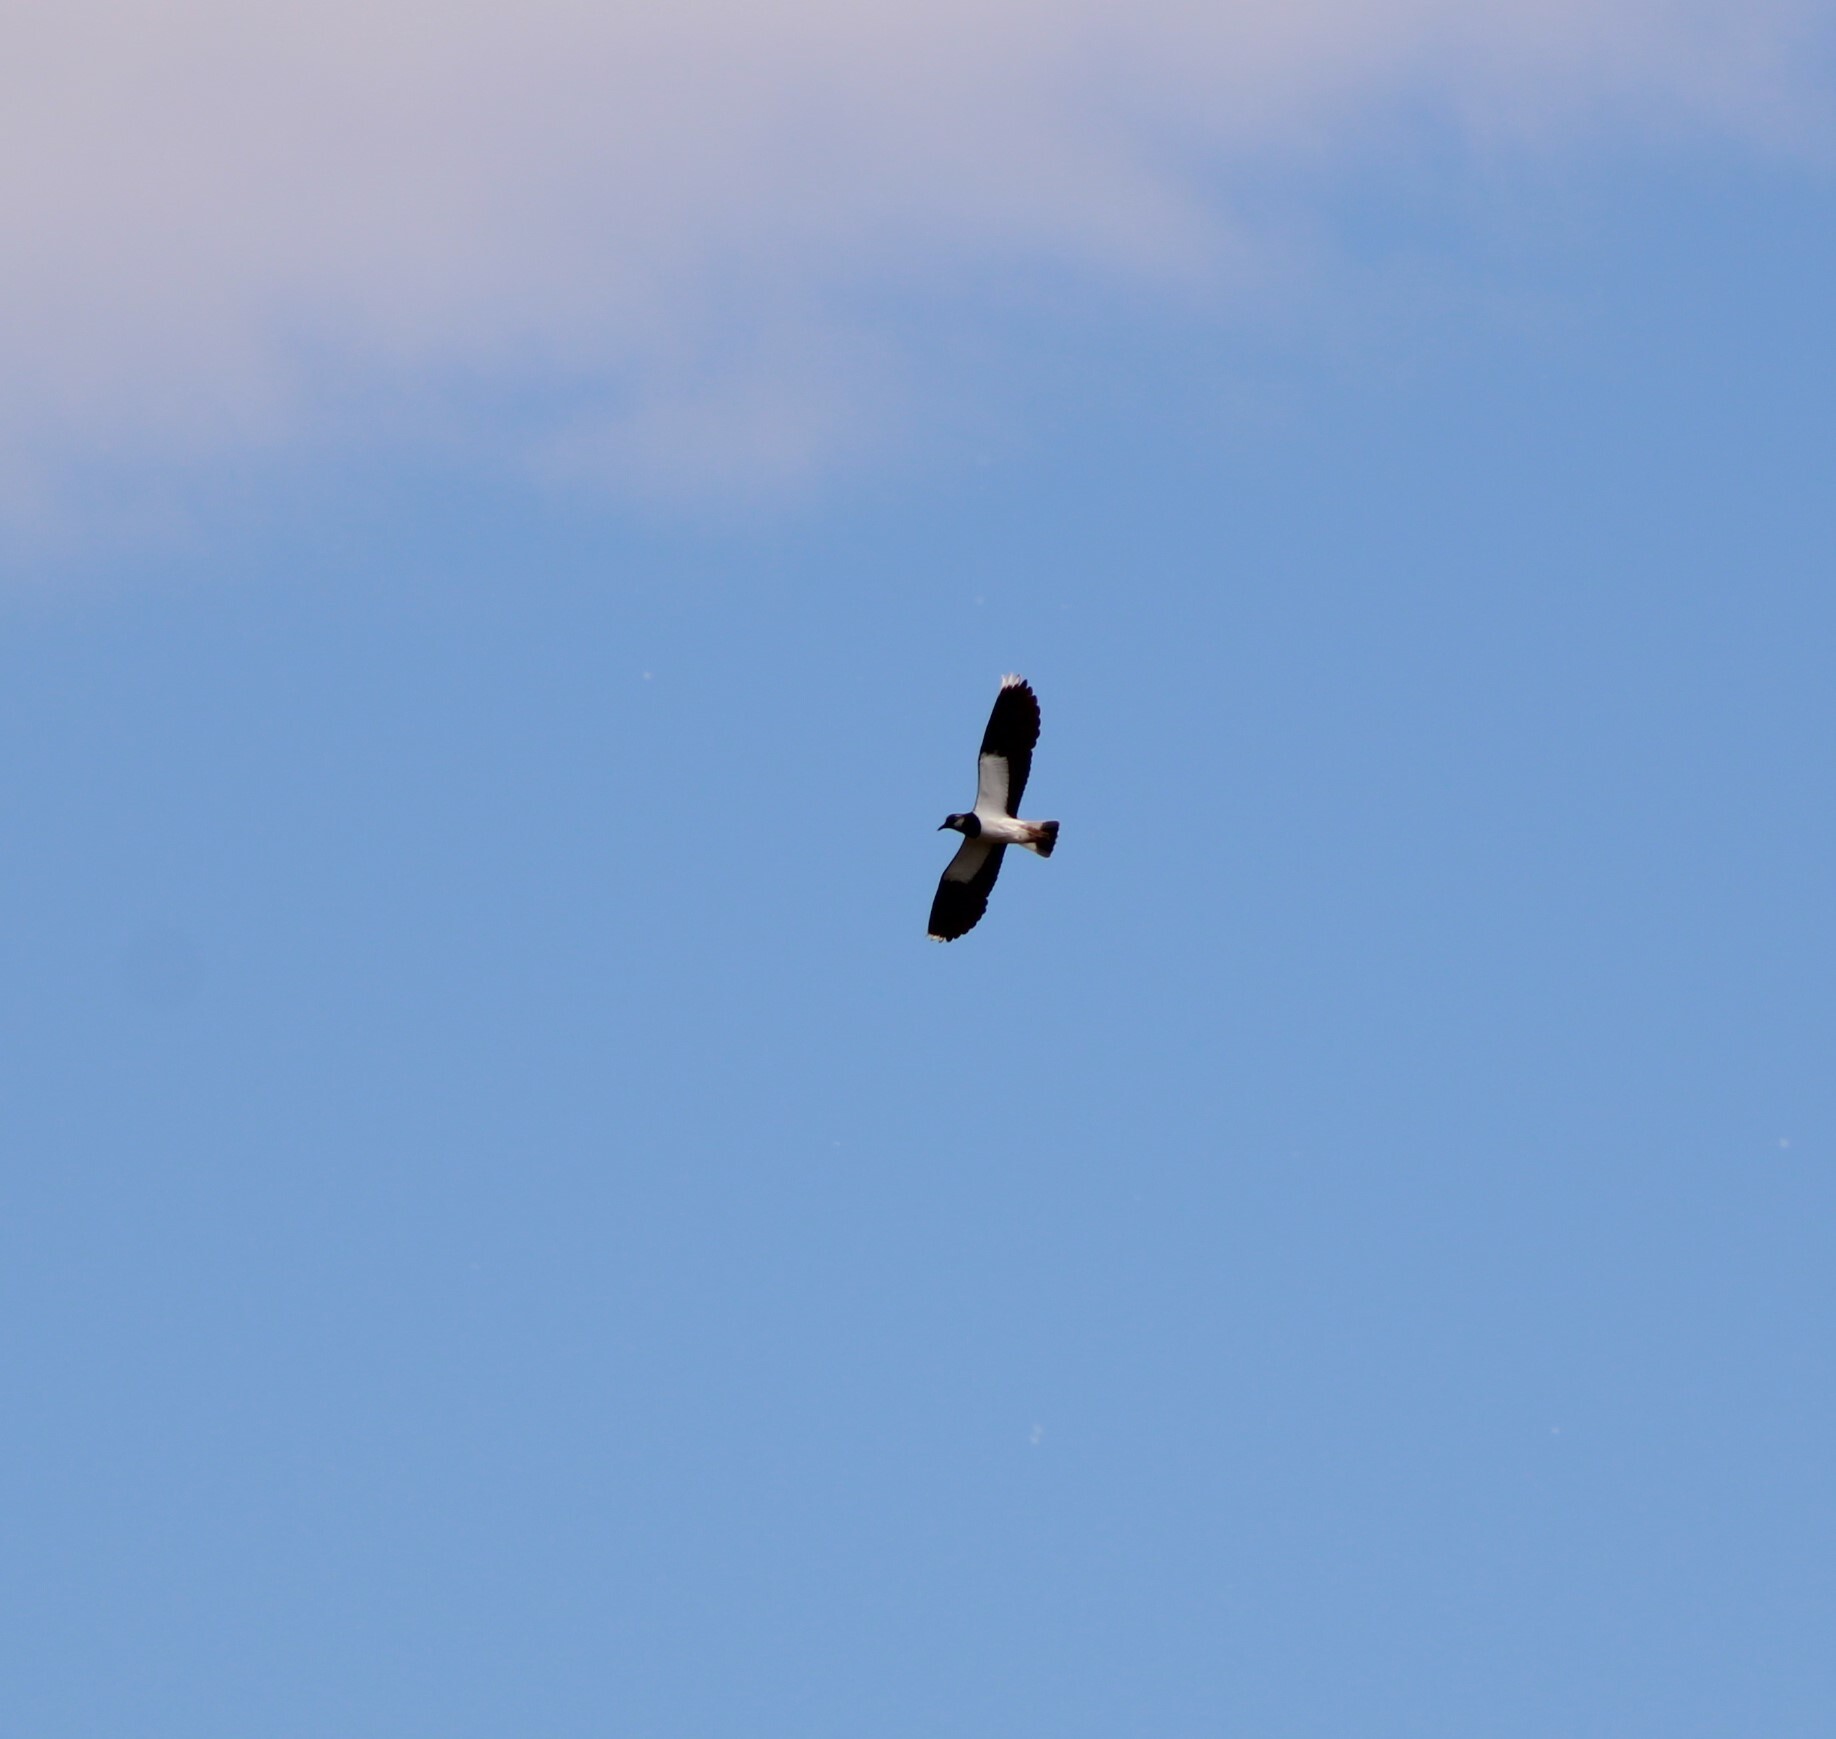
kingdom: Animalia
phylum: Chordata
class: Aves
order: Charadriiformes
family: Charadriidae
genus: Vanellus
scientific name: Vanellus vanellus
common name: Northern lapwing
